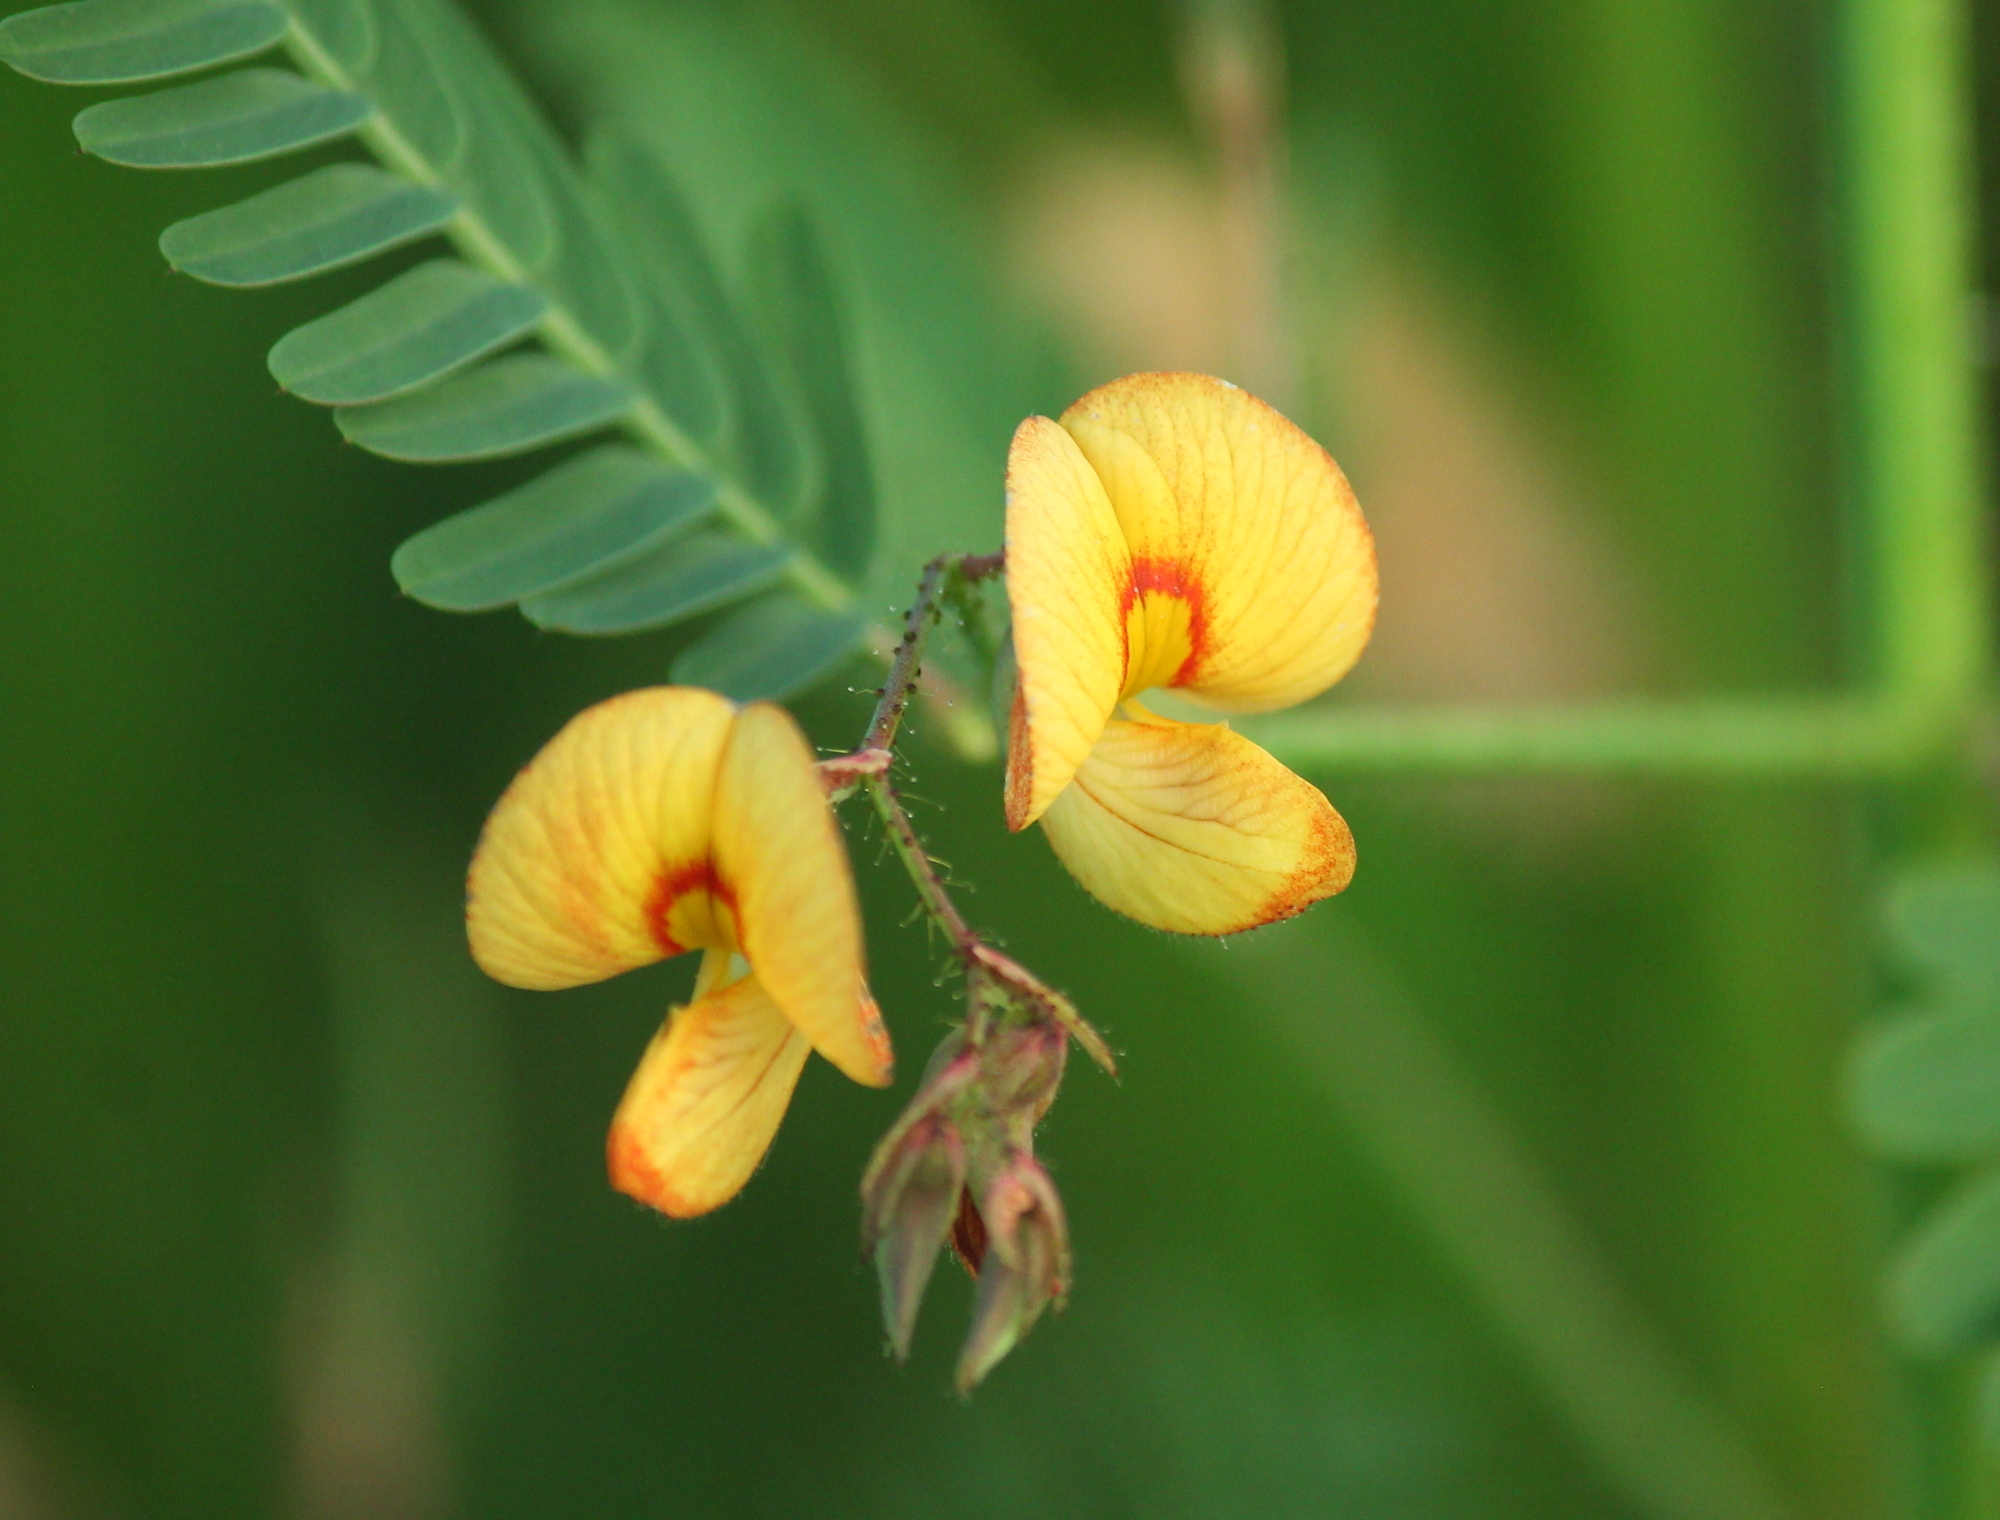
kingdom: Plantae
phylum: Tracheophyta
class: Magnoliopsida
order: Fabales
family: Fabaceae
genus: Aeschynomene
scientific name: Aeschynomene indica
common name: Indian jointvetch
